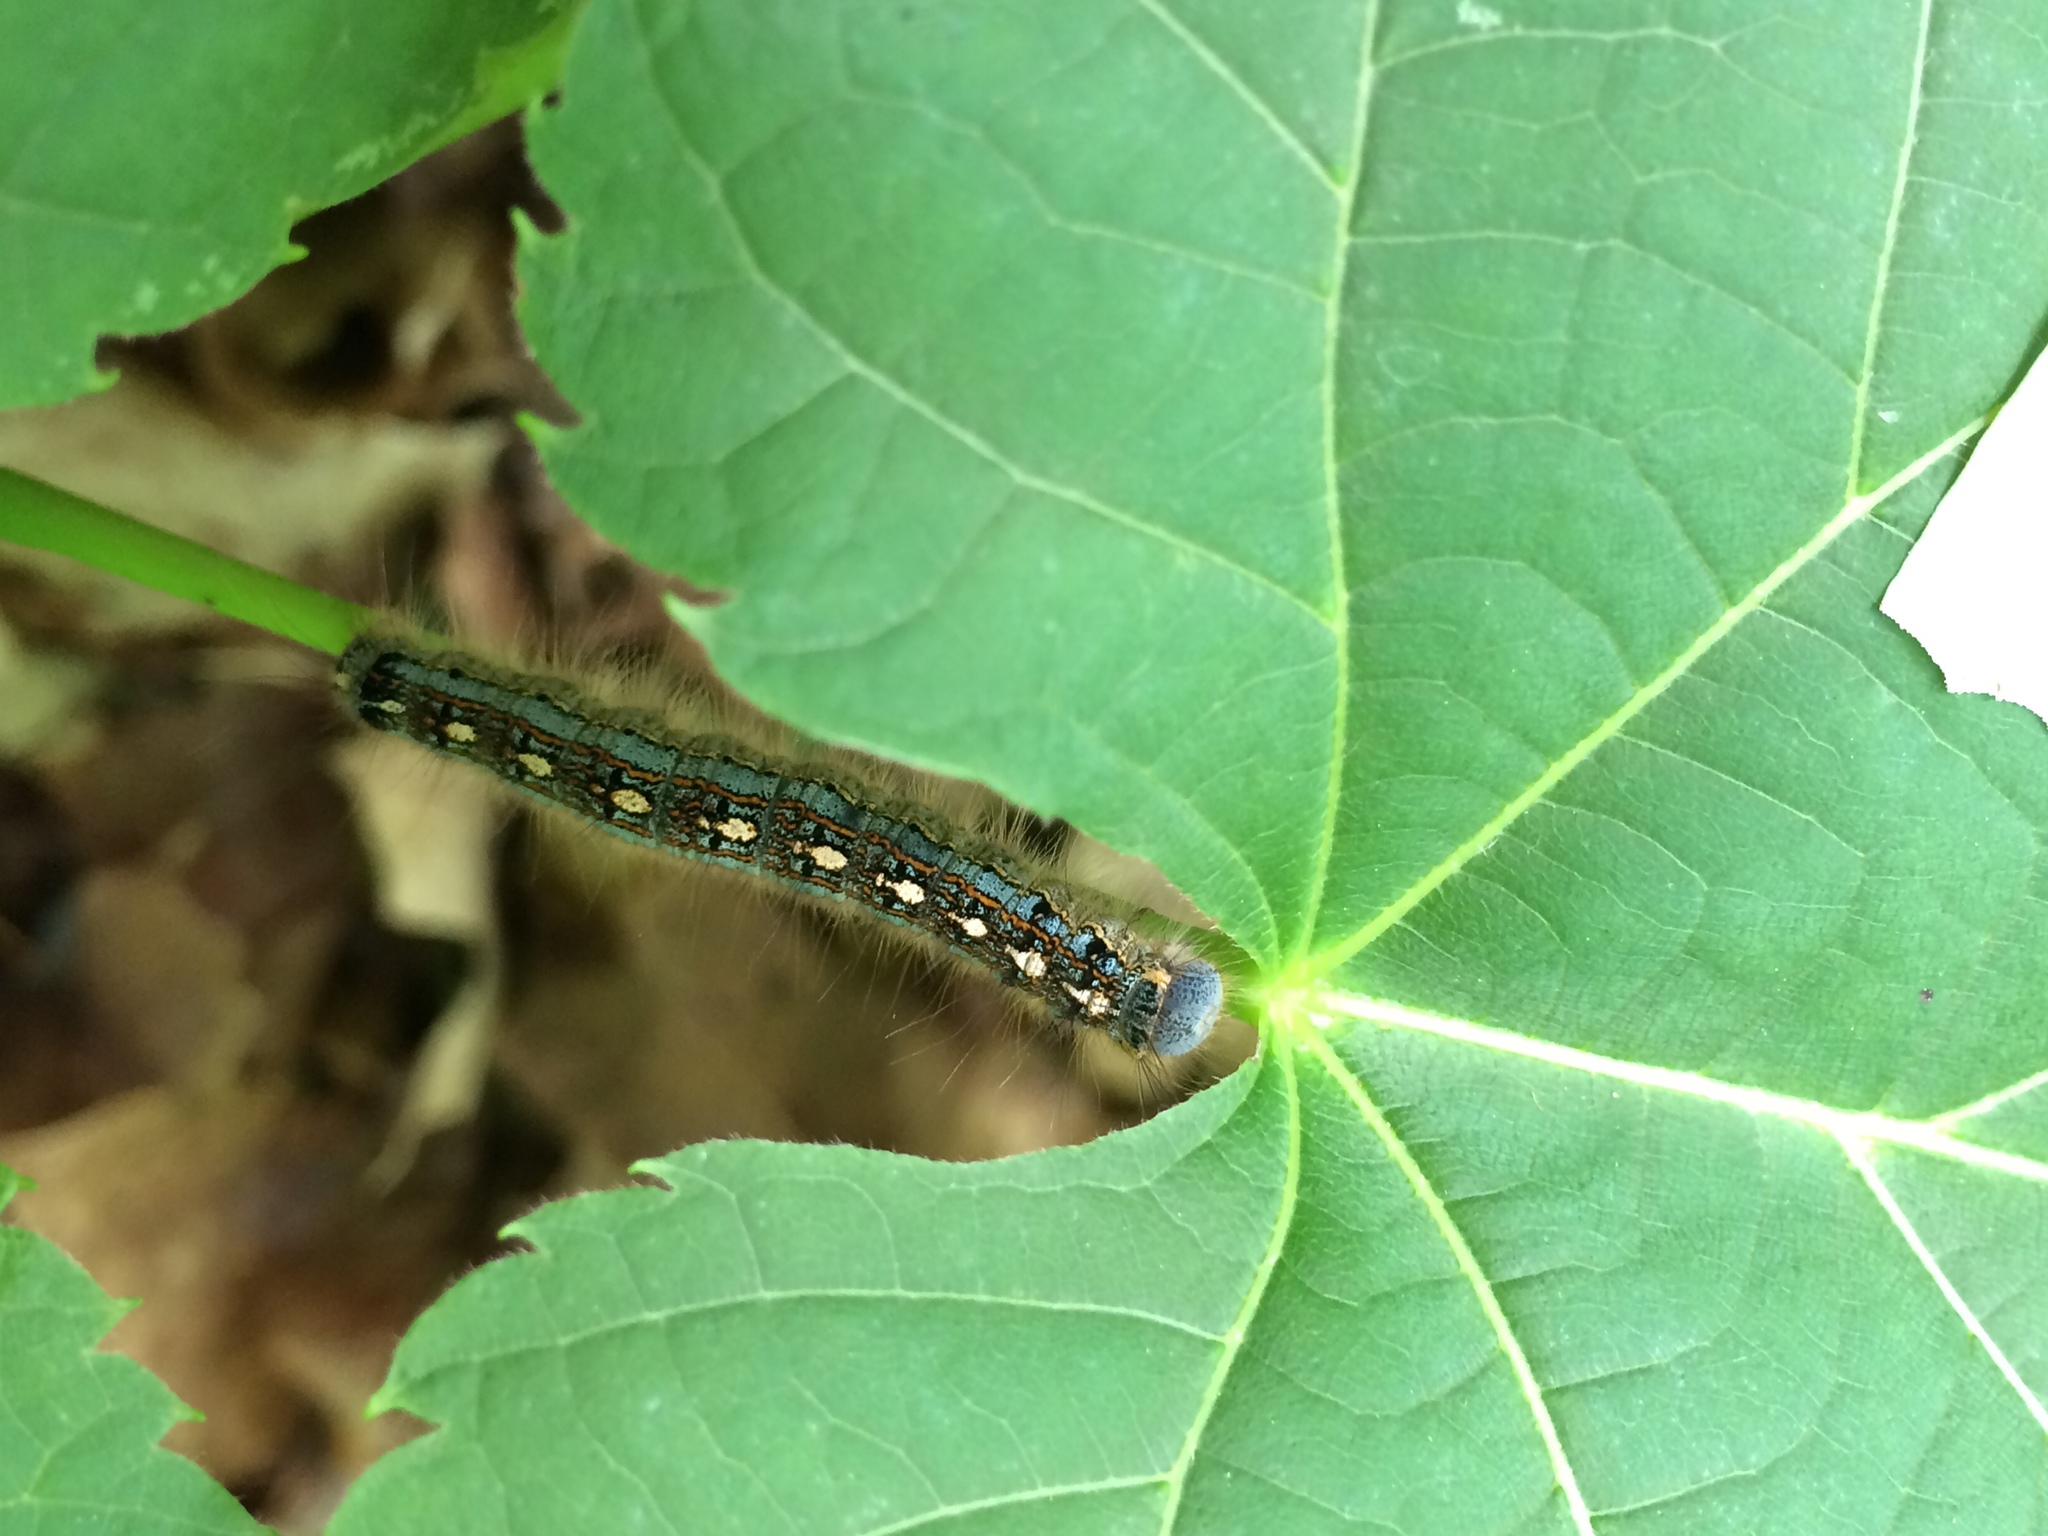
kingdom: Animalia
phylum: Arthropoda
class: Insecta
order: Lepidoptera
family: Lasiocampidae
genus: Malacosoma
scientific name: Malacosoma disstria
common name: Forest tent caterpillar
